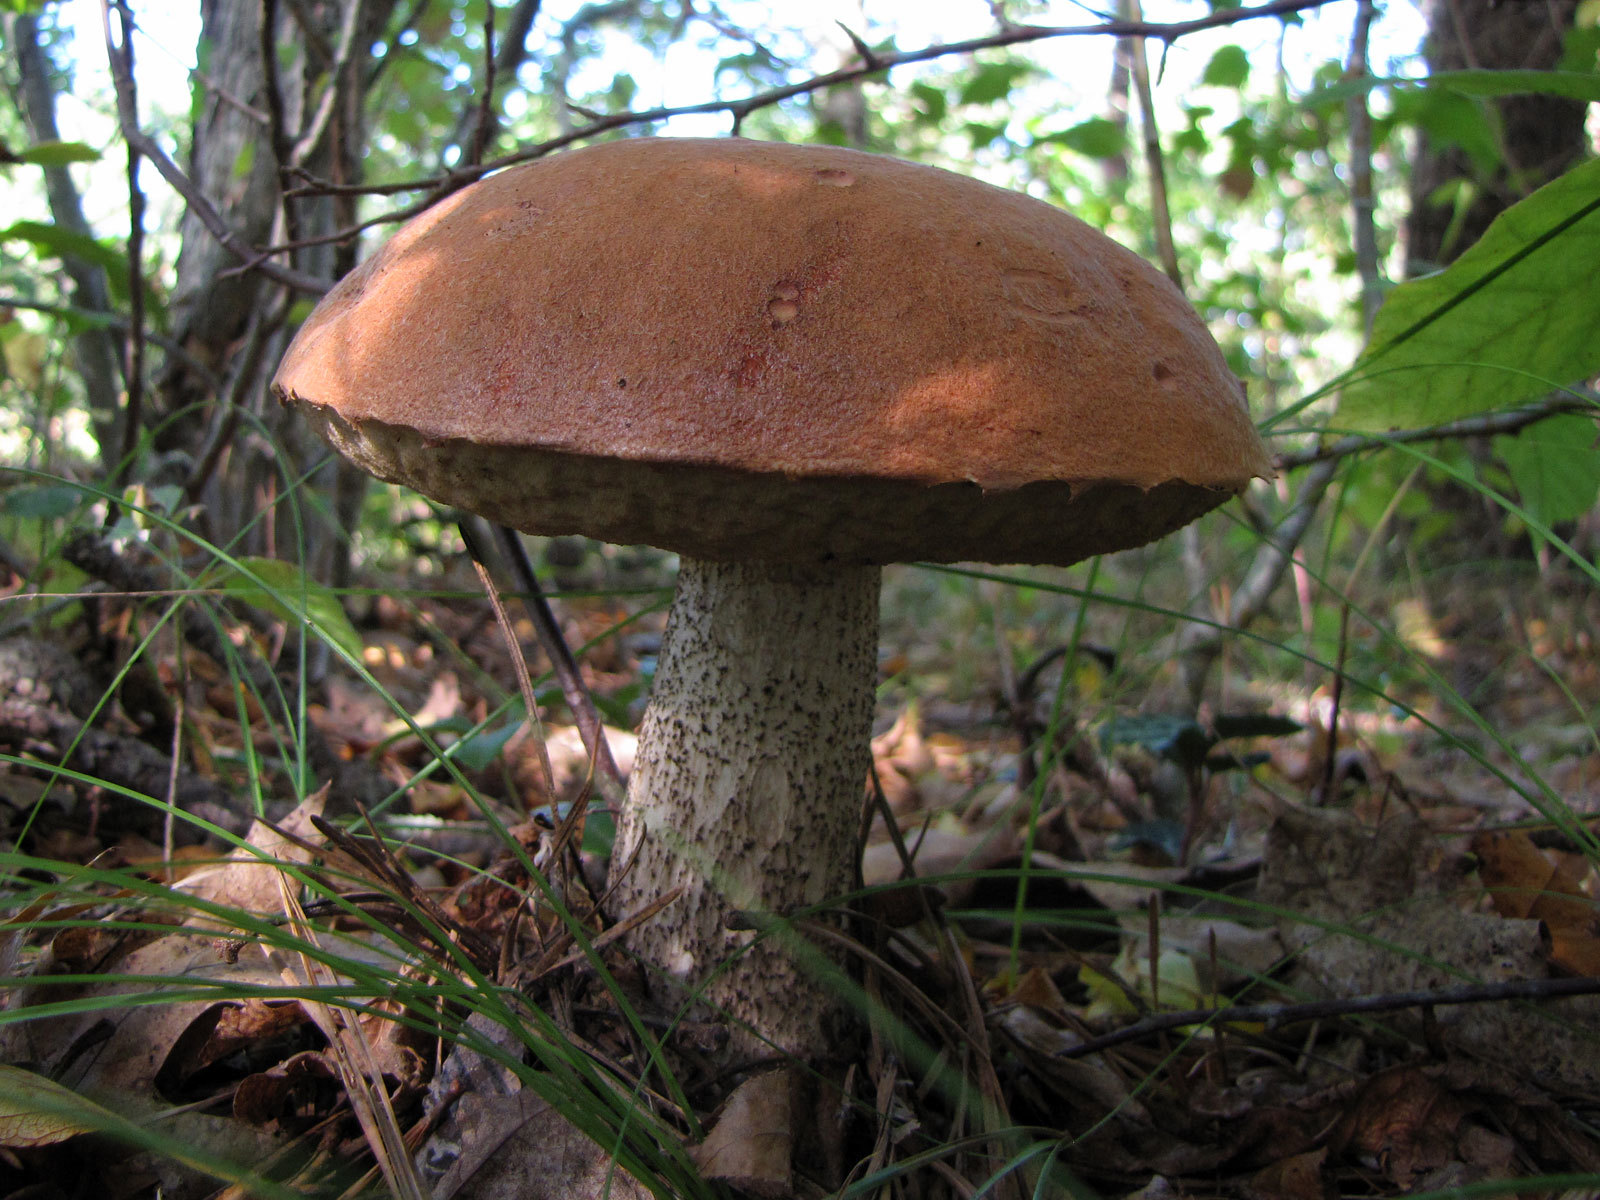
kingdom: Fungi
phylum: Basidiomycota
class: Agaricomycetes
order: Boletales
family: Boletaceae
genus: Leccinum
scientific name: Leccinum aurantiacum
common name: Orange bolete
